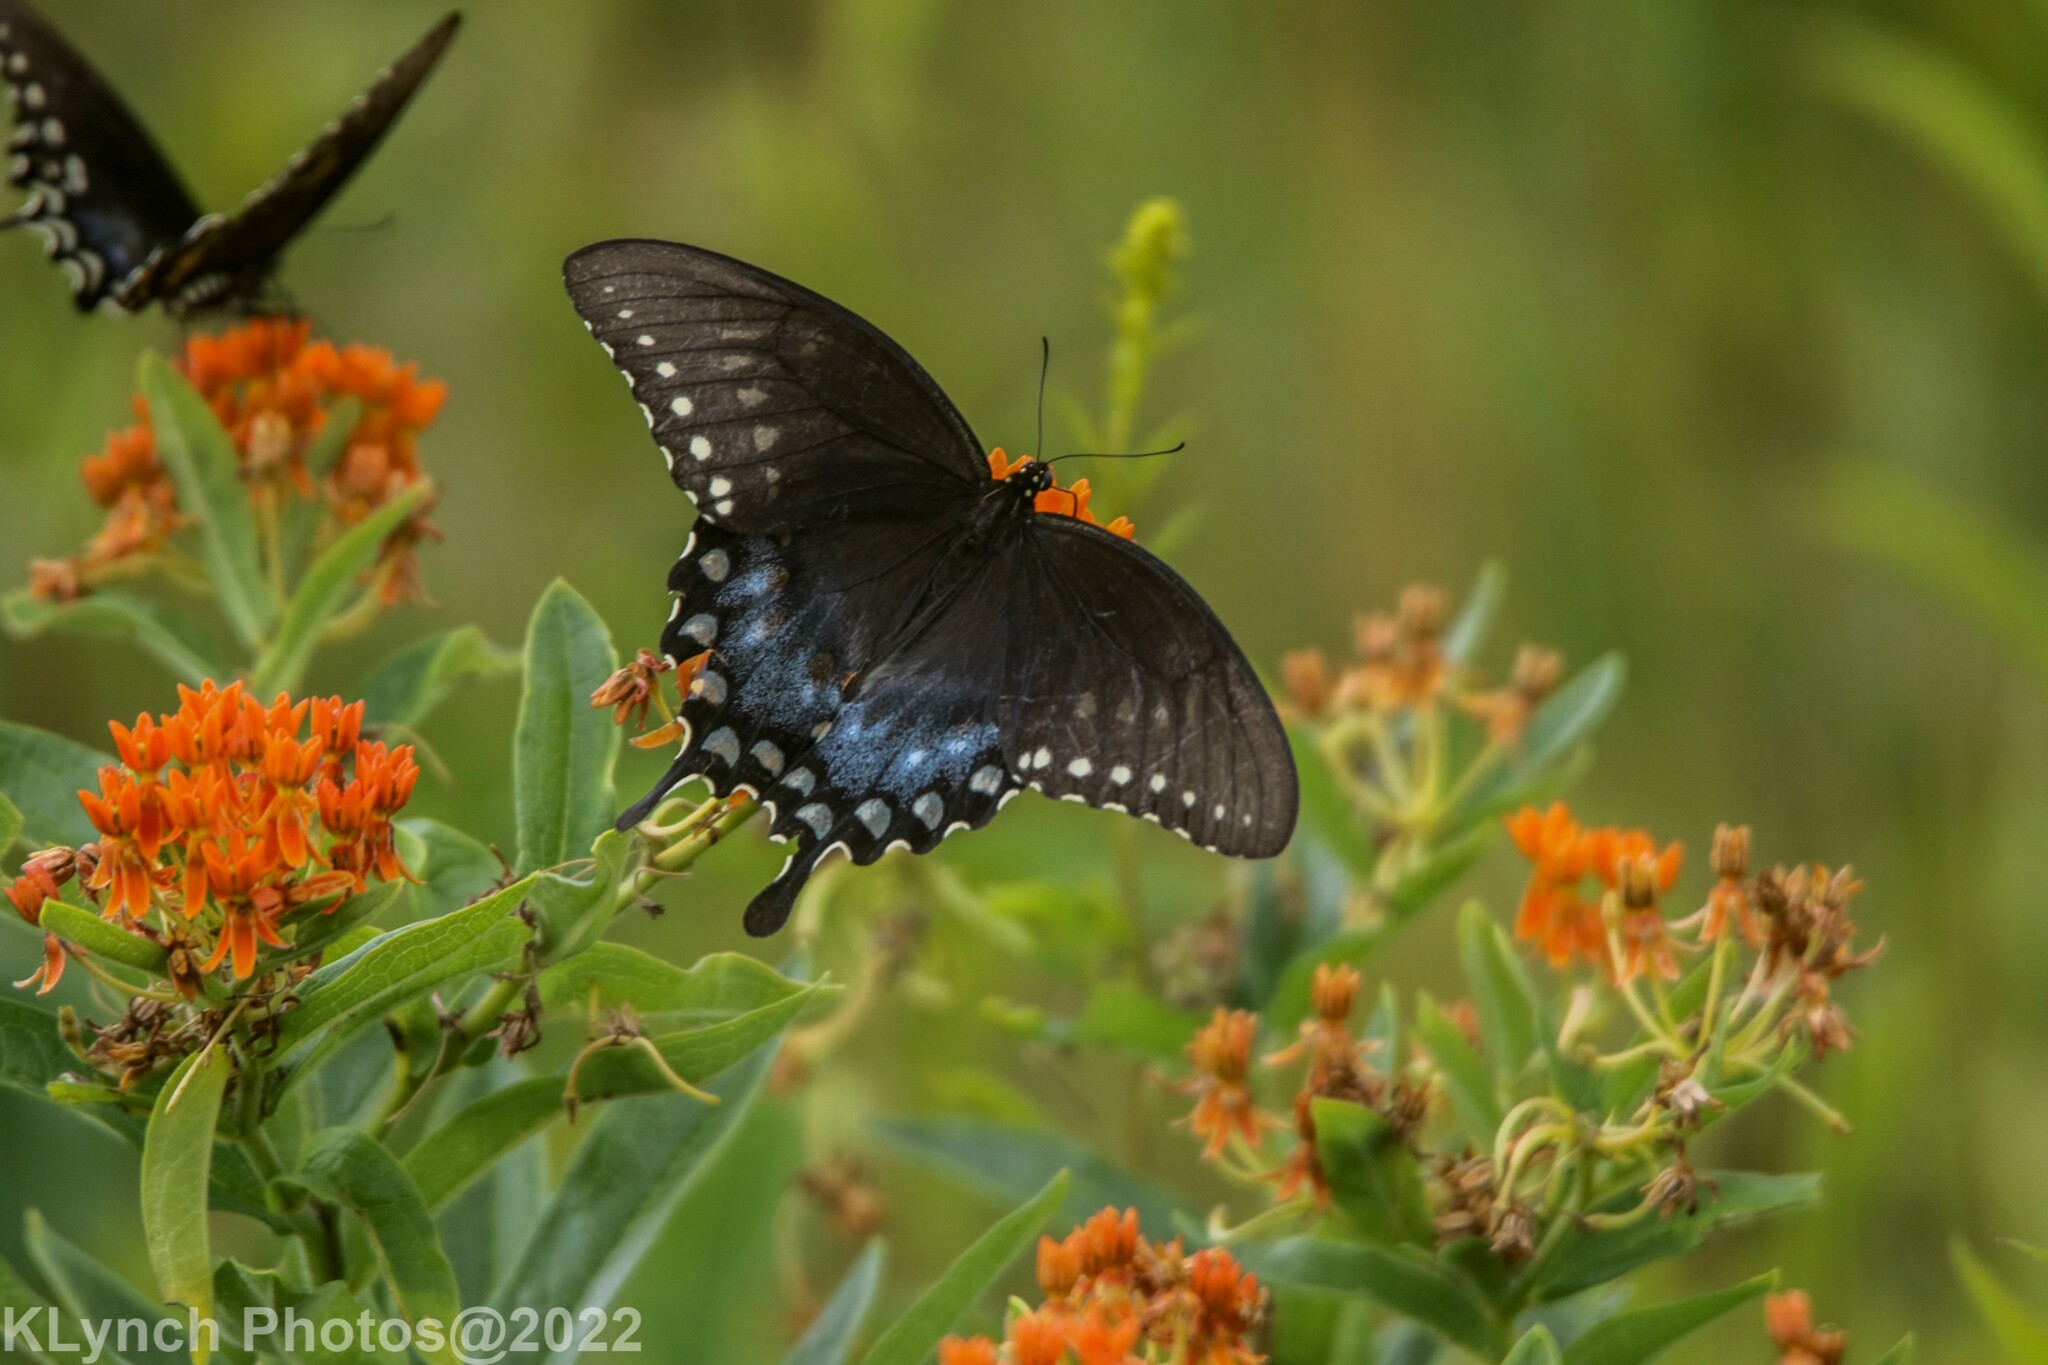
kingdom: Animalia
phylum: Arthropoda
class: Insecta
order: Lepidoptera
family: Papilionidae
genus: Papilio
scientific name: Papilio troilus
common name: Spicebush swallowtail
